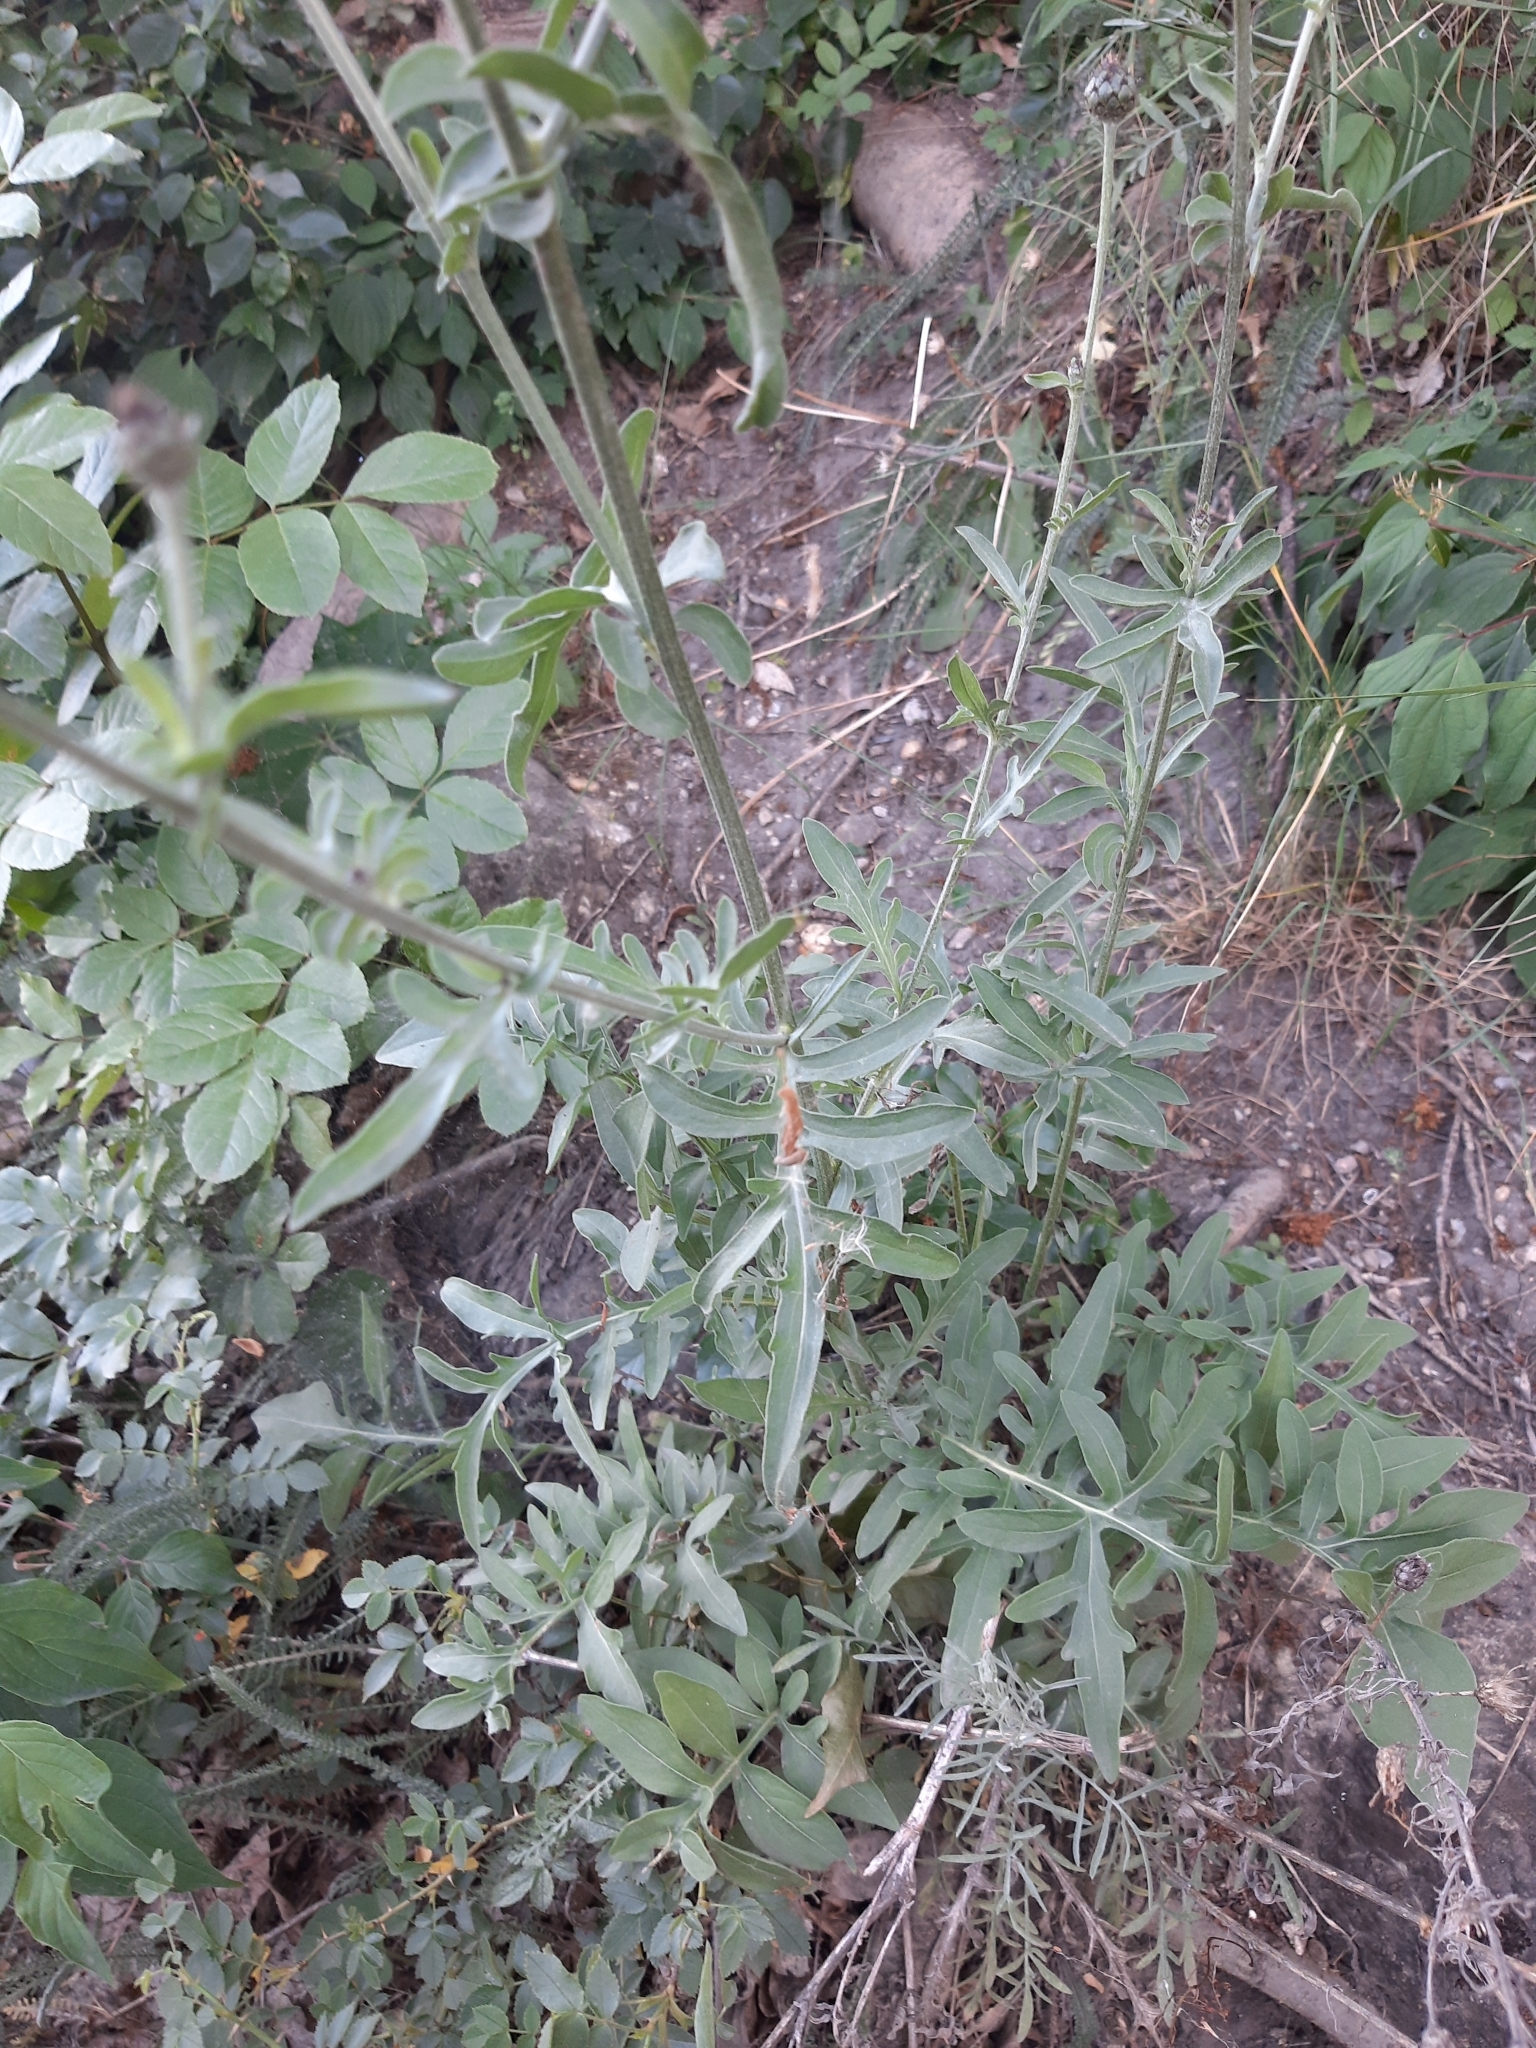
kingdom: Plantae
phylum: Tracheophyta
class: Magnoliopsida
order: Asterales
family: Asteraceae
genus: Centaurea
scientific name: Centaurea scabiosa
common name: Greater knapweed
